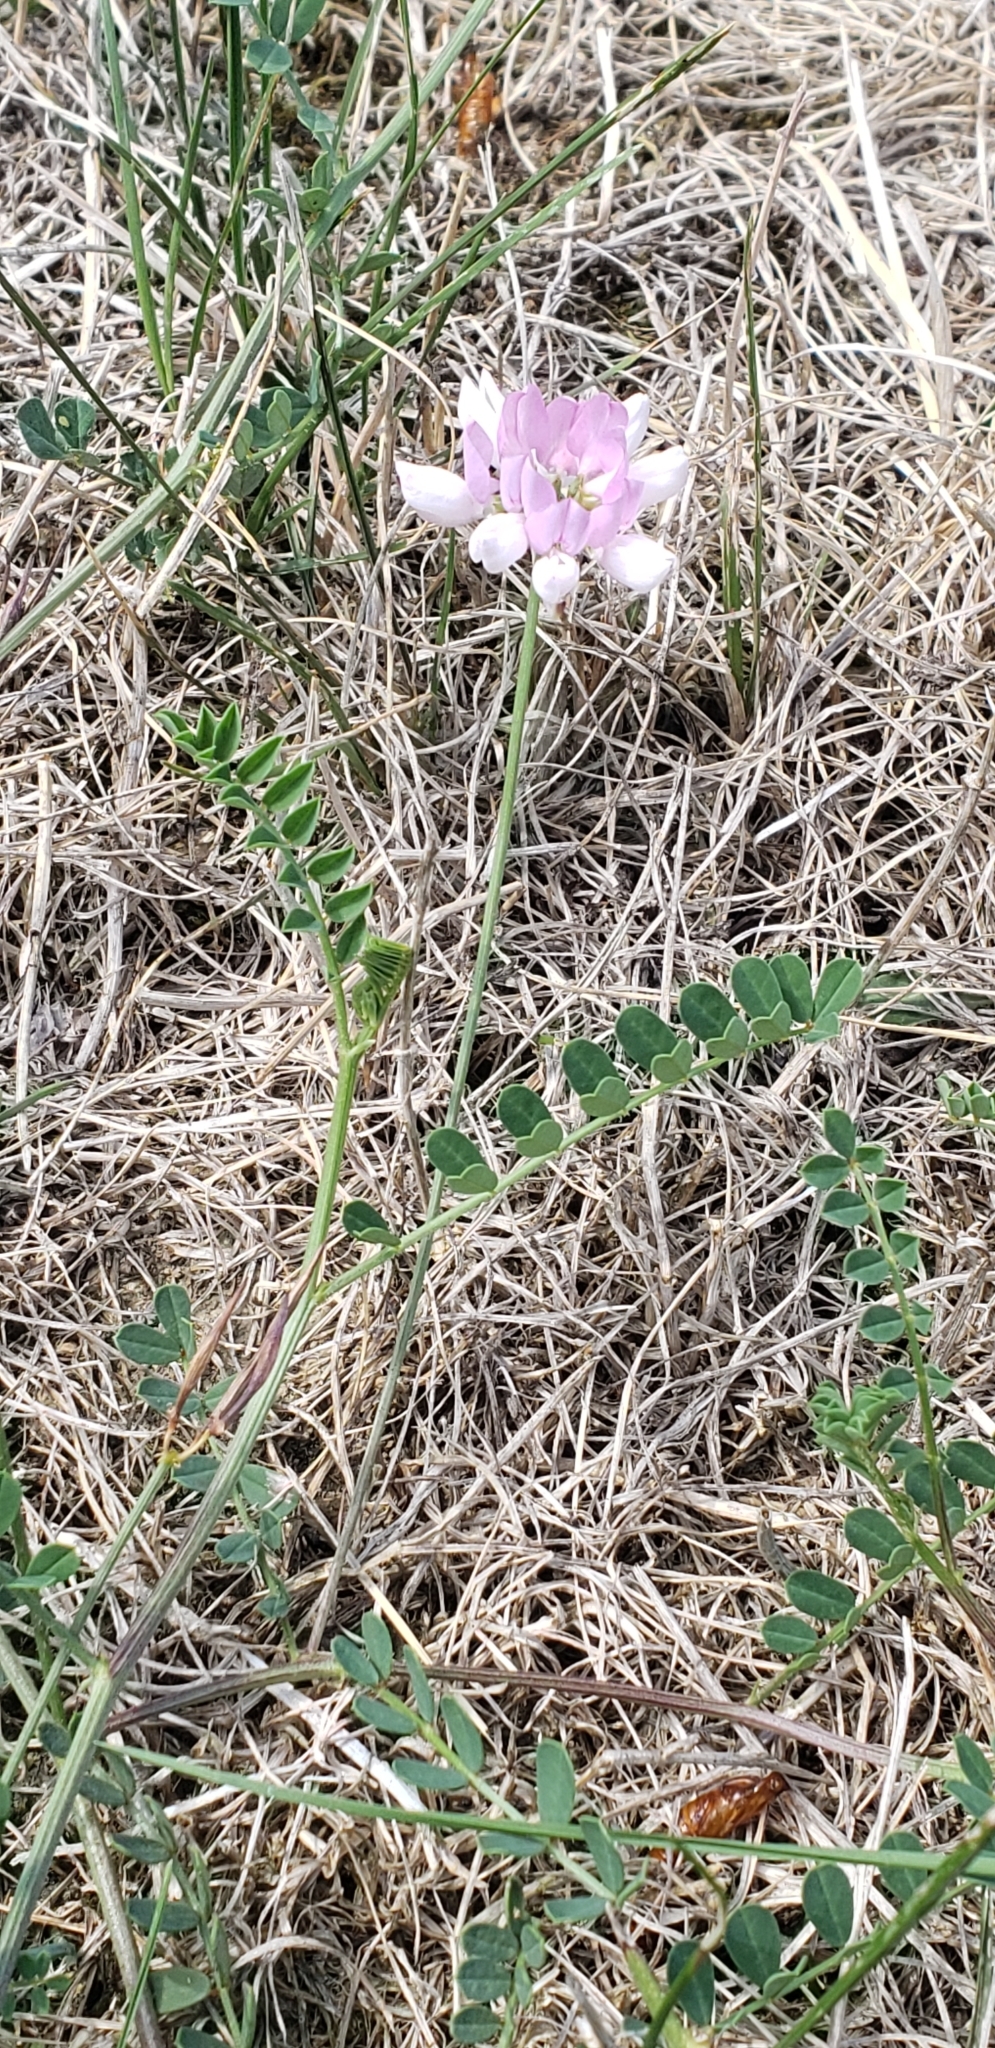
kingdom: Plantae
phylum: Tracheophyta
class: Magnoliopsida
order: Fabales
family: Fabaceae
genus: Coronilla
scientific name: Coronilla varia
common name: Crownvetch
